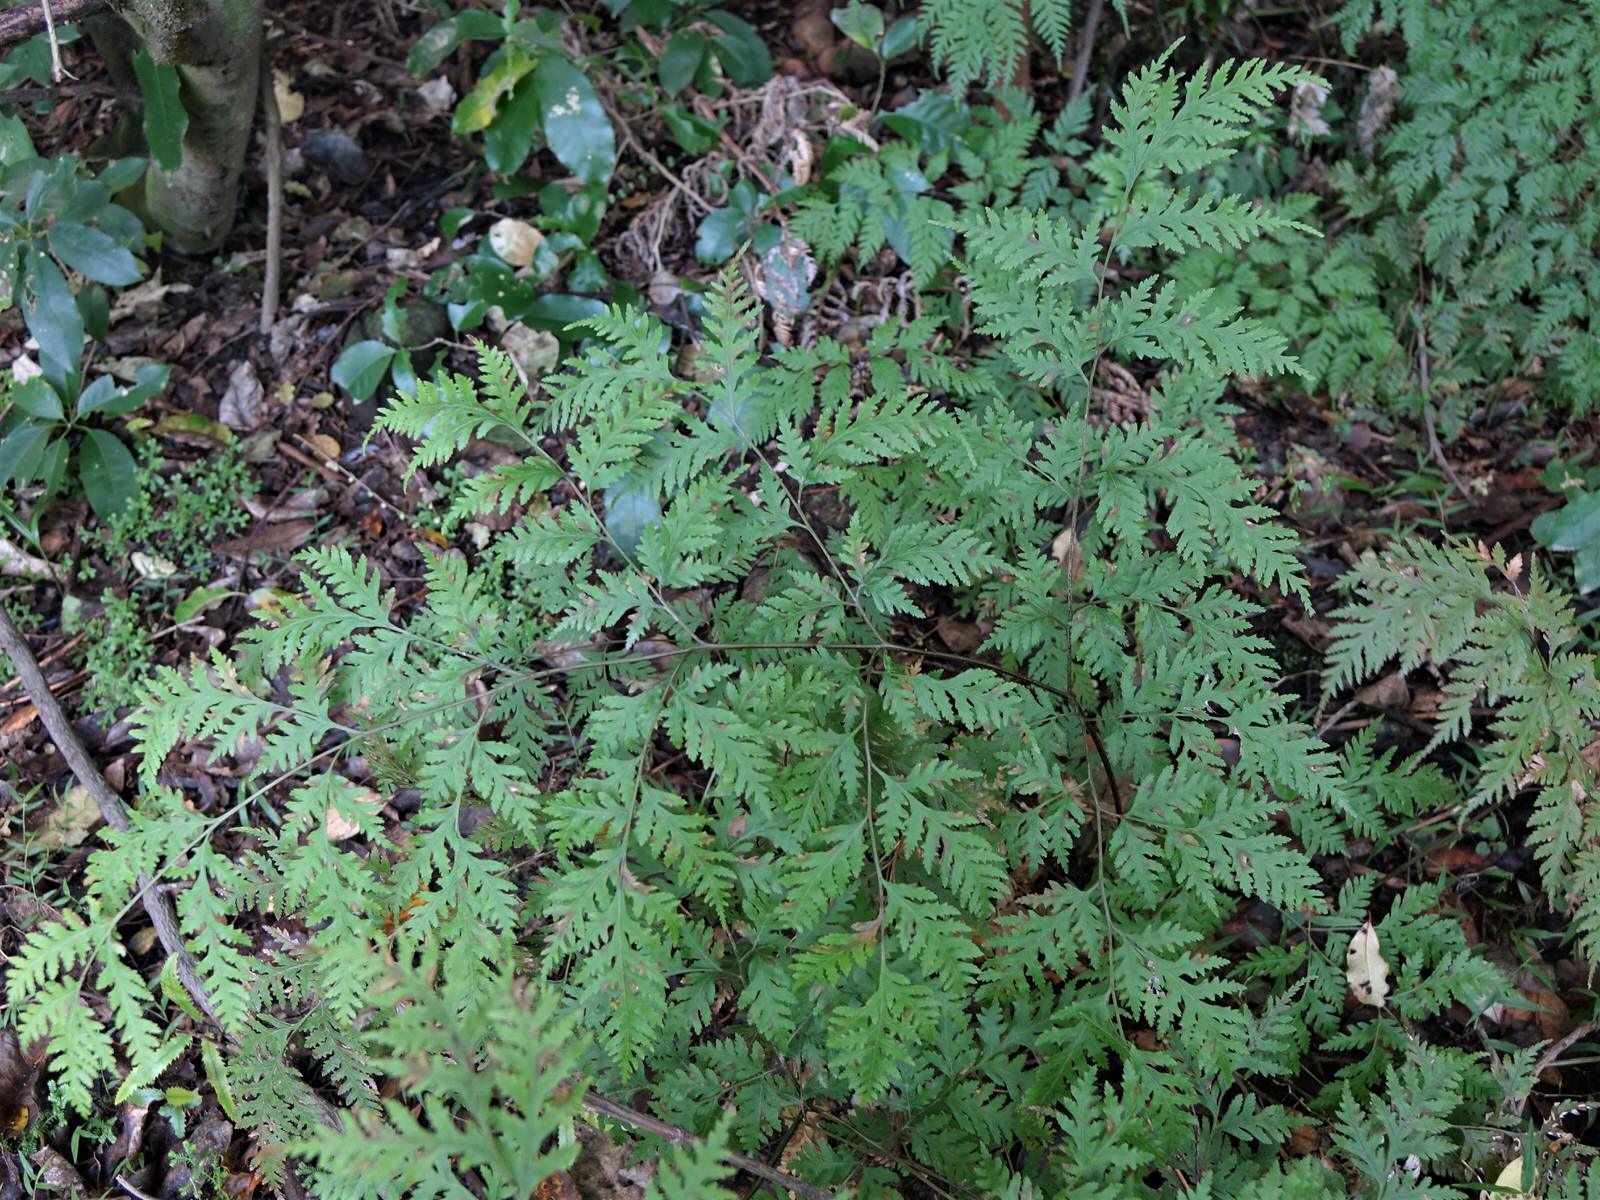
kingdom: Plantae
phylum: Tracheophyta
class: Polypodiopsida
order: Polypodiales
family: Pteridaceae
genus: Pteris
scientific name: Pteris macilenta
